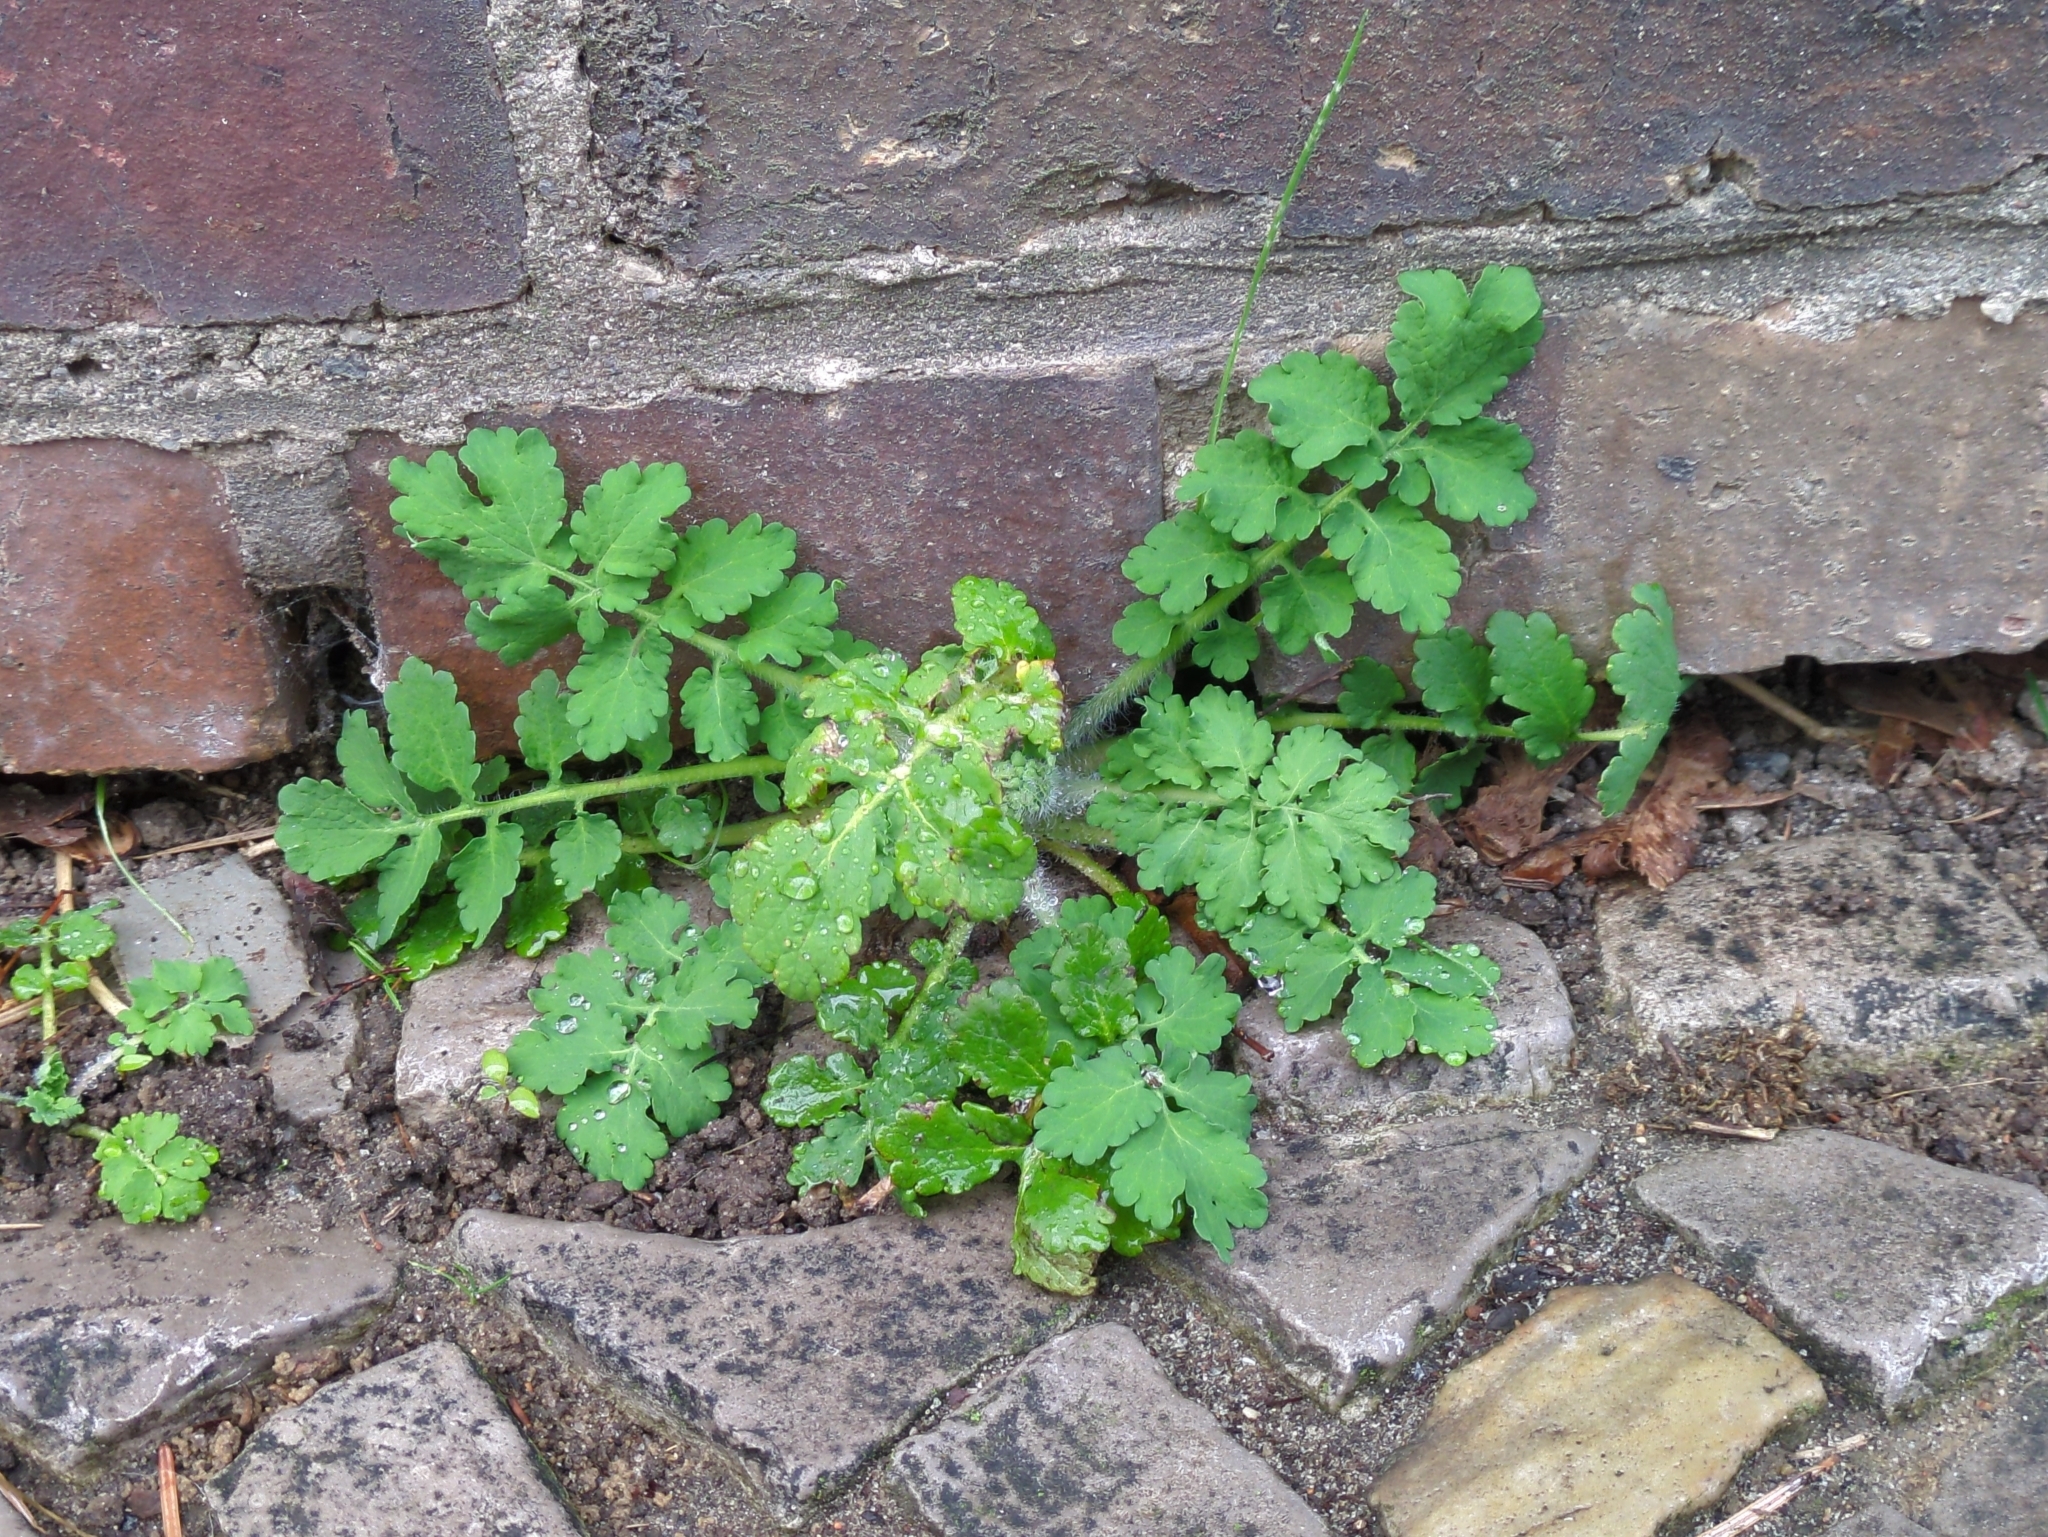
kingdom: Plantae
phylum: Tracheophyta
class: Magnoliopsida
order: Ranunculales
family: Papaveraceae
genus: Chelidonium
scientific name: Chelidonium majus
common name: Greater celandine
